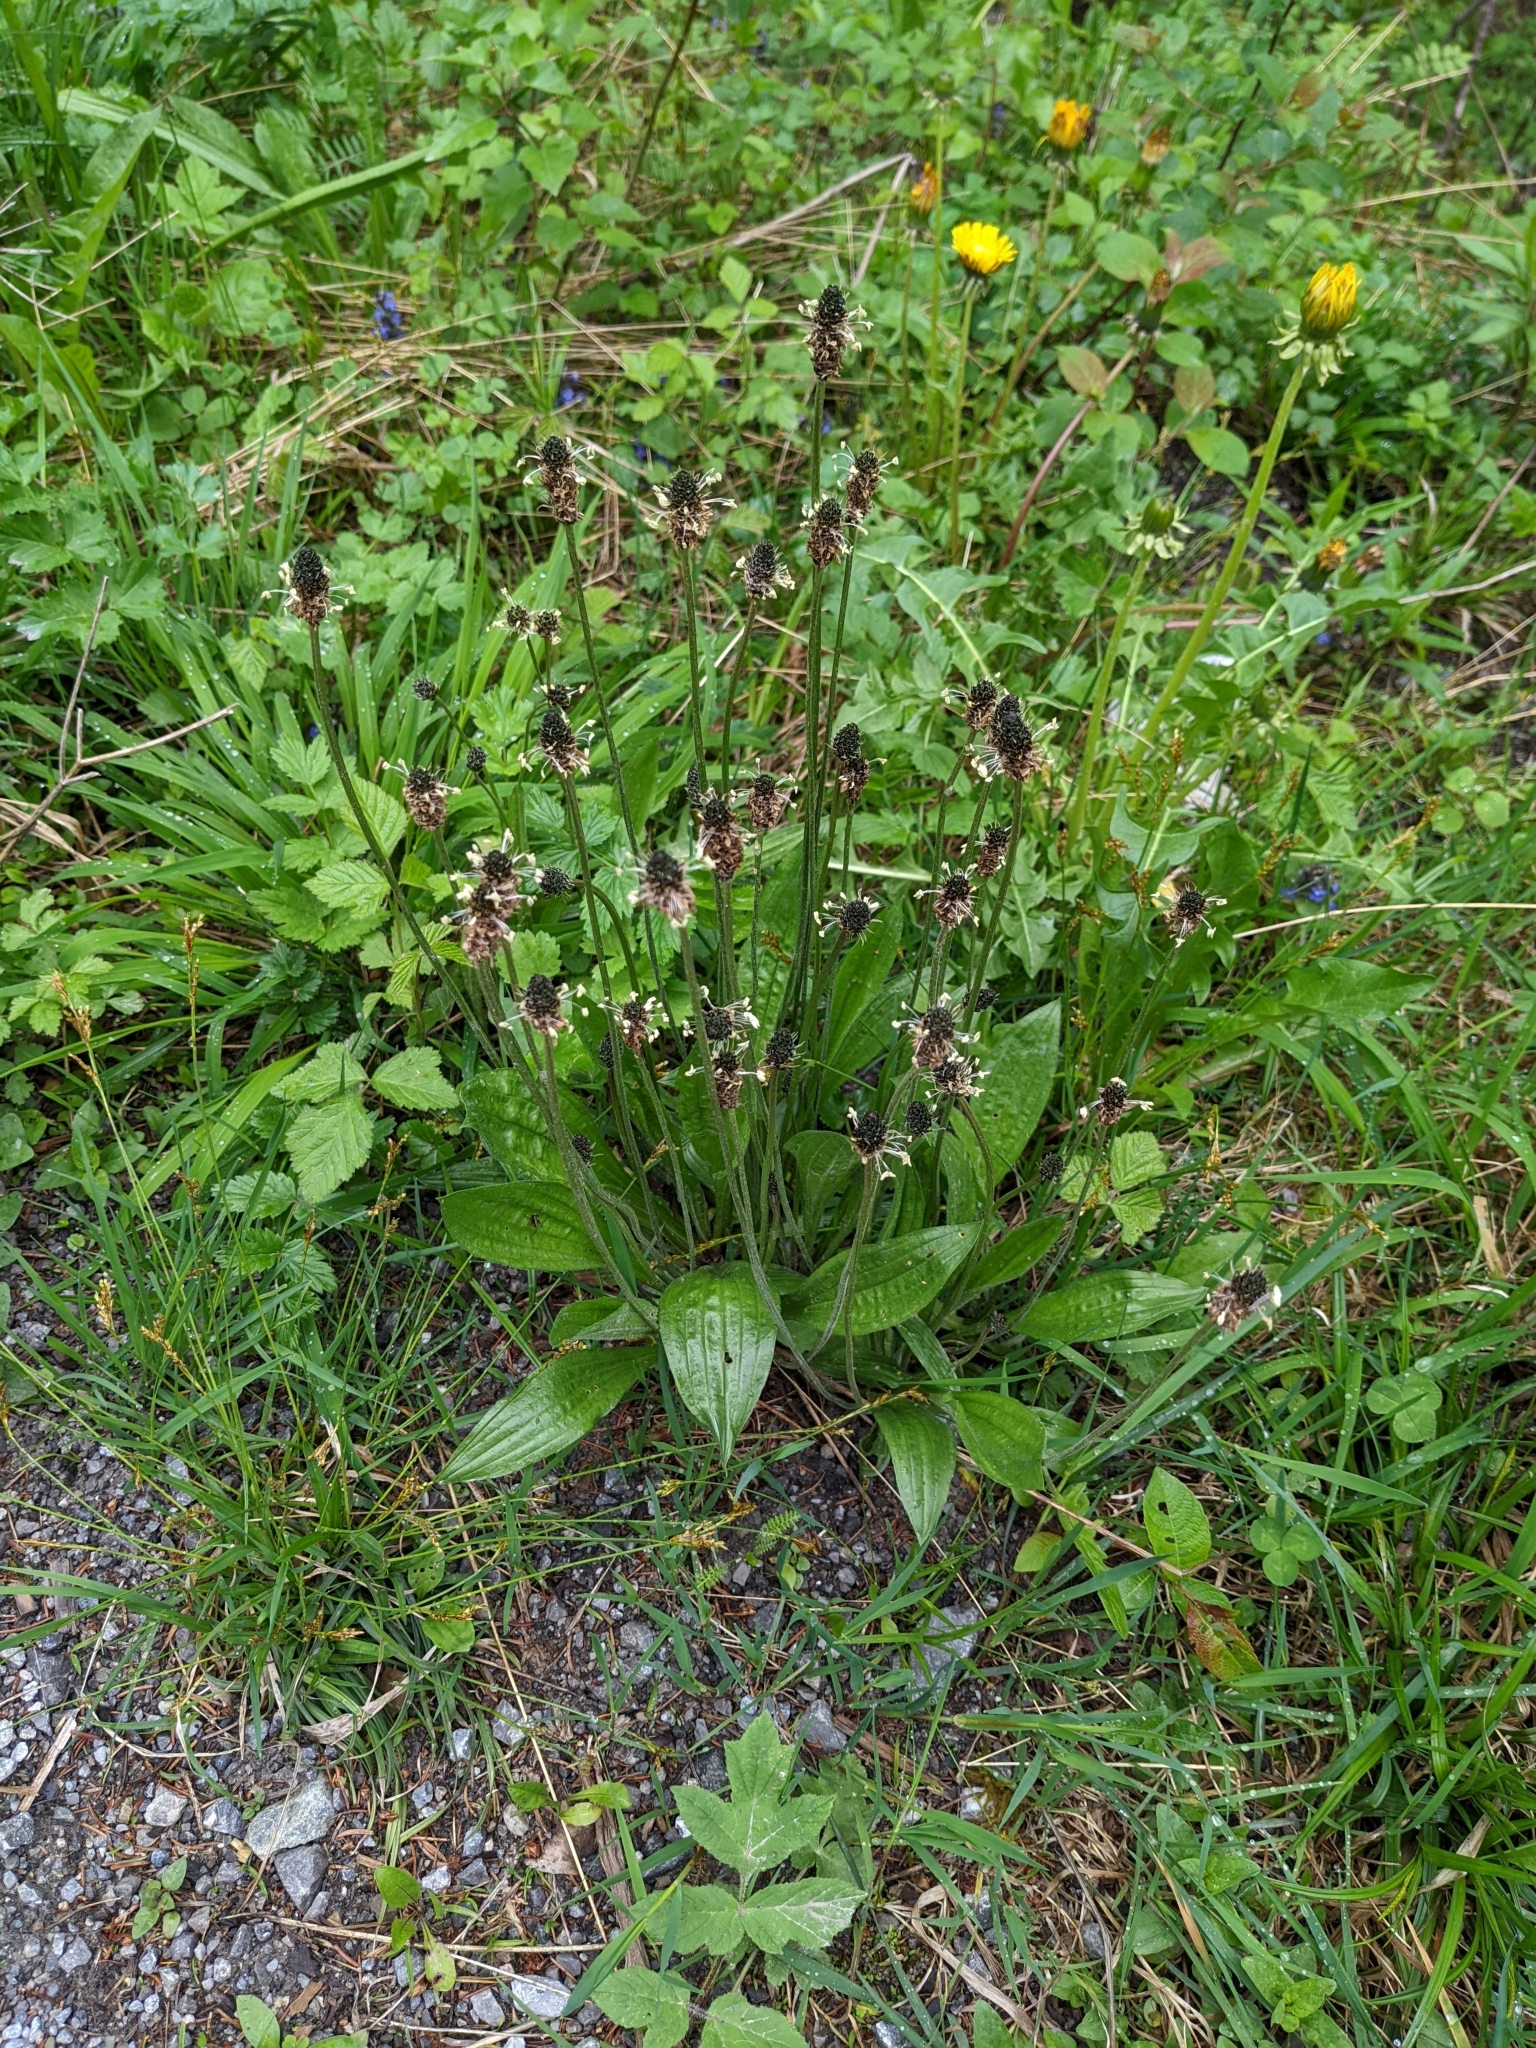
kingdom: Plantae
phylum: Tracheophyta
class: Magnoliopsida
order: Lamiales
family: Plantaginaceae
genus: Plantago
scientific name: Plantago lanceolata
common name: Ribwort plantain
